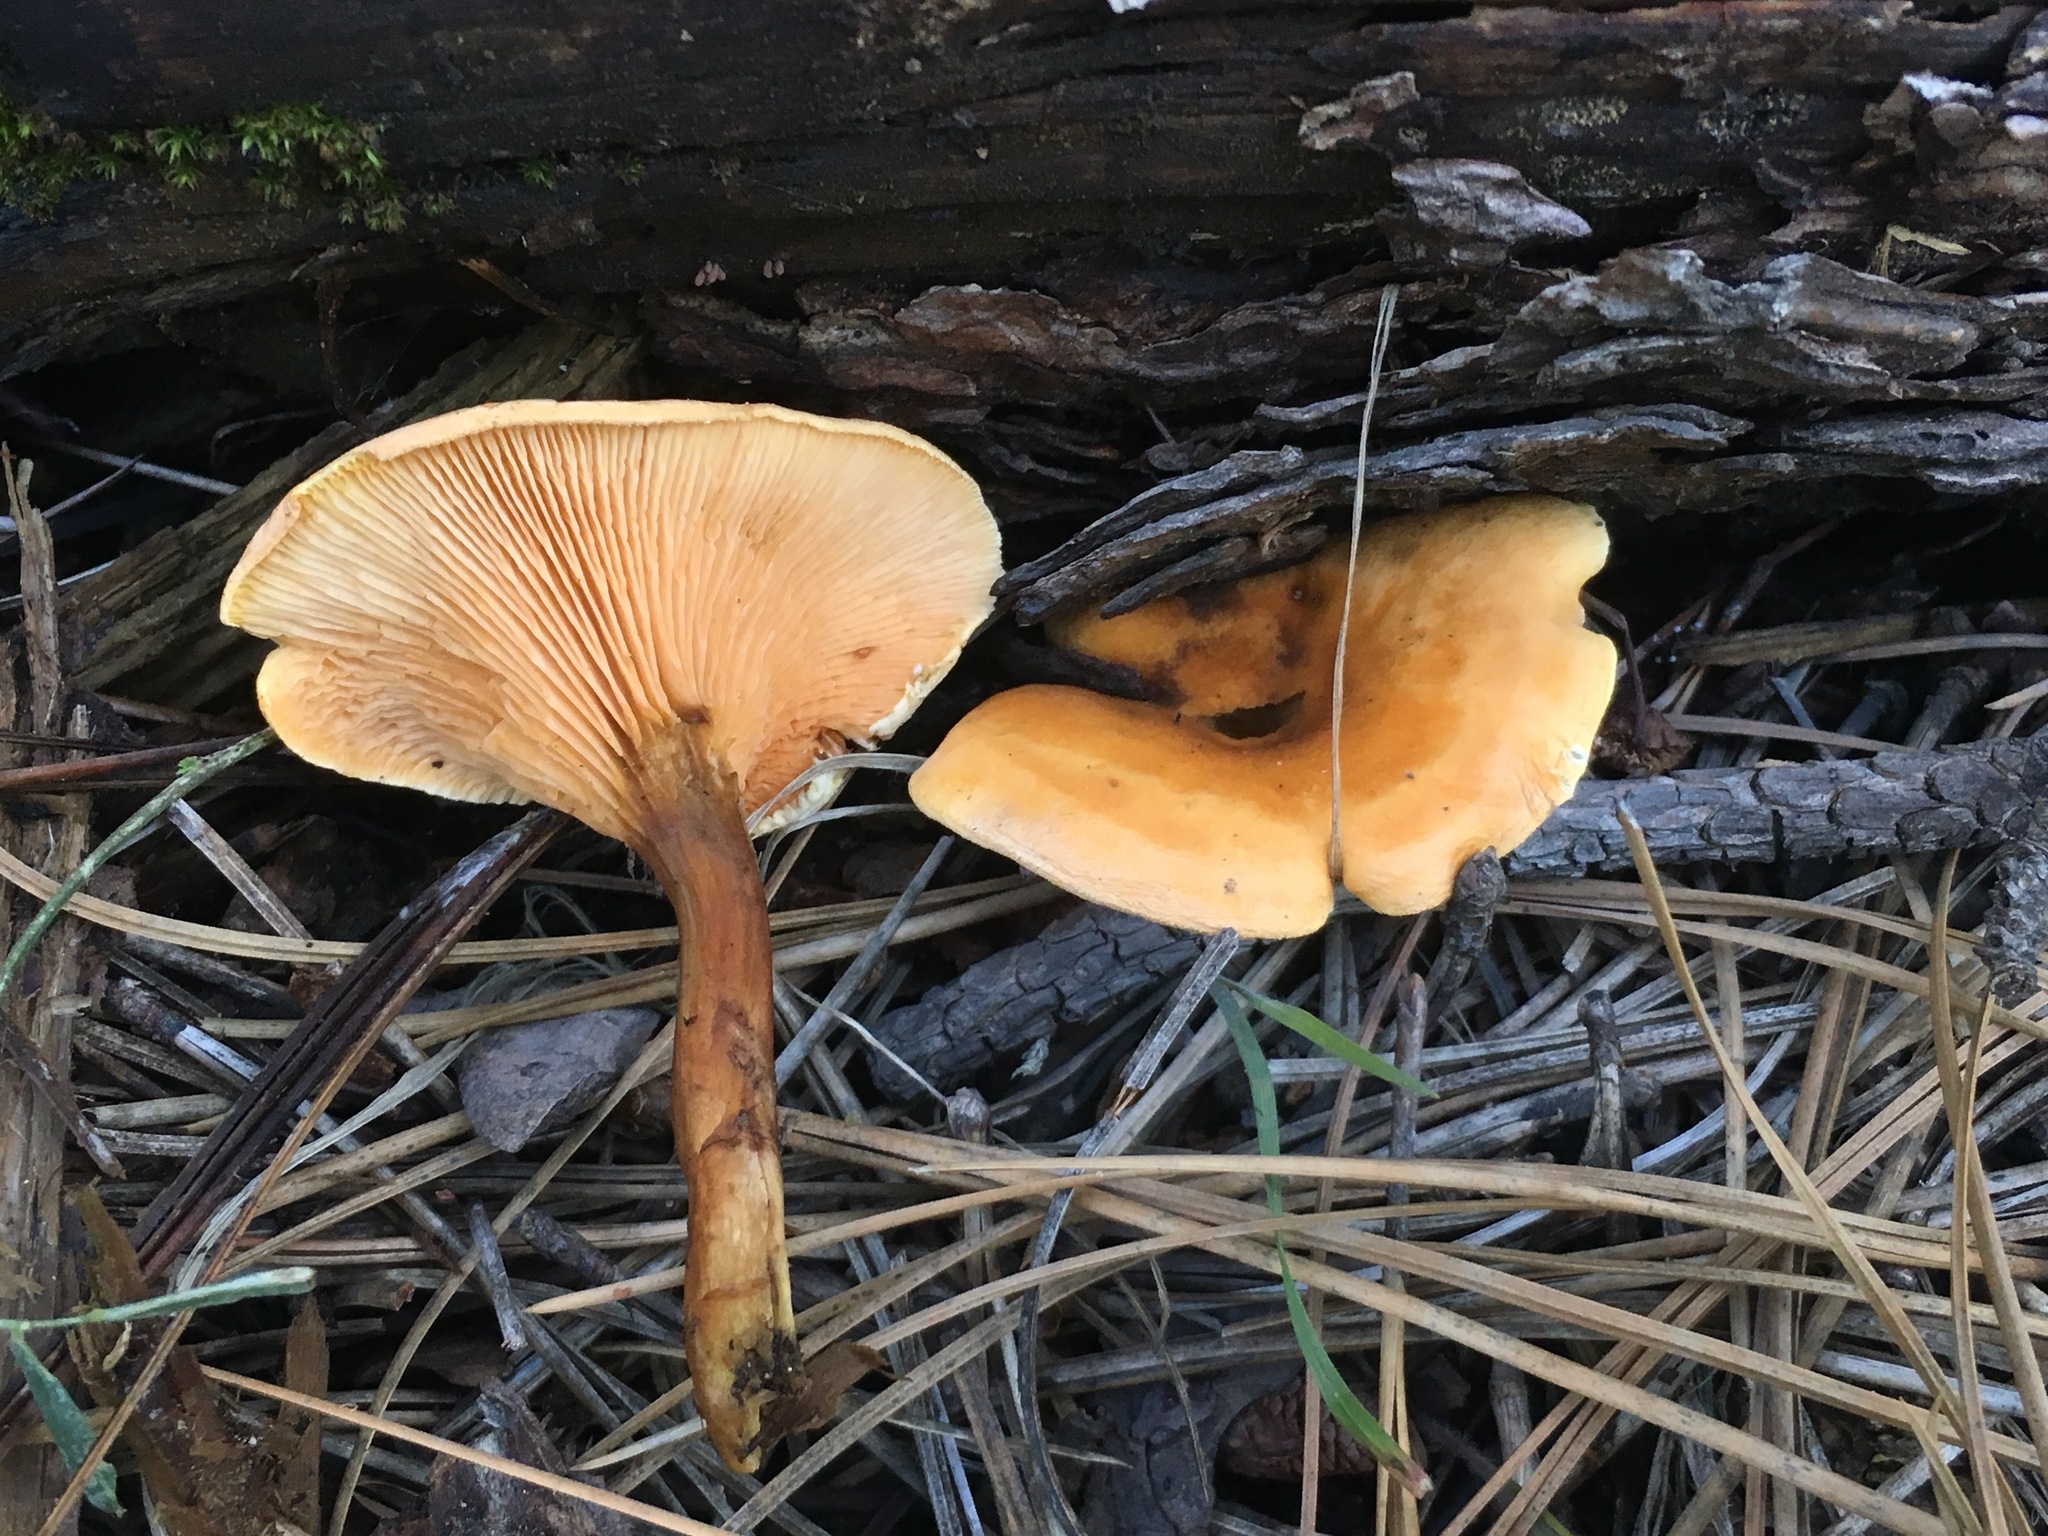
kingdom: Fungi
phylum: Basidiomycota
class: Agaricomycetes
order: Boletales
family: Hygrophoropsidaceae
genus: Hygrophoropsis
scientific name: Hygrophoropsis aurantiaca
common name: False chanterelle
